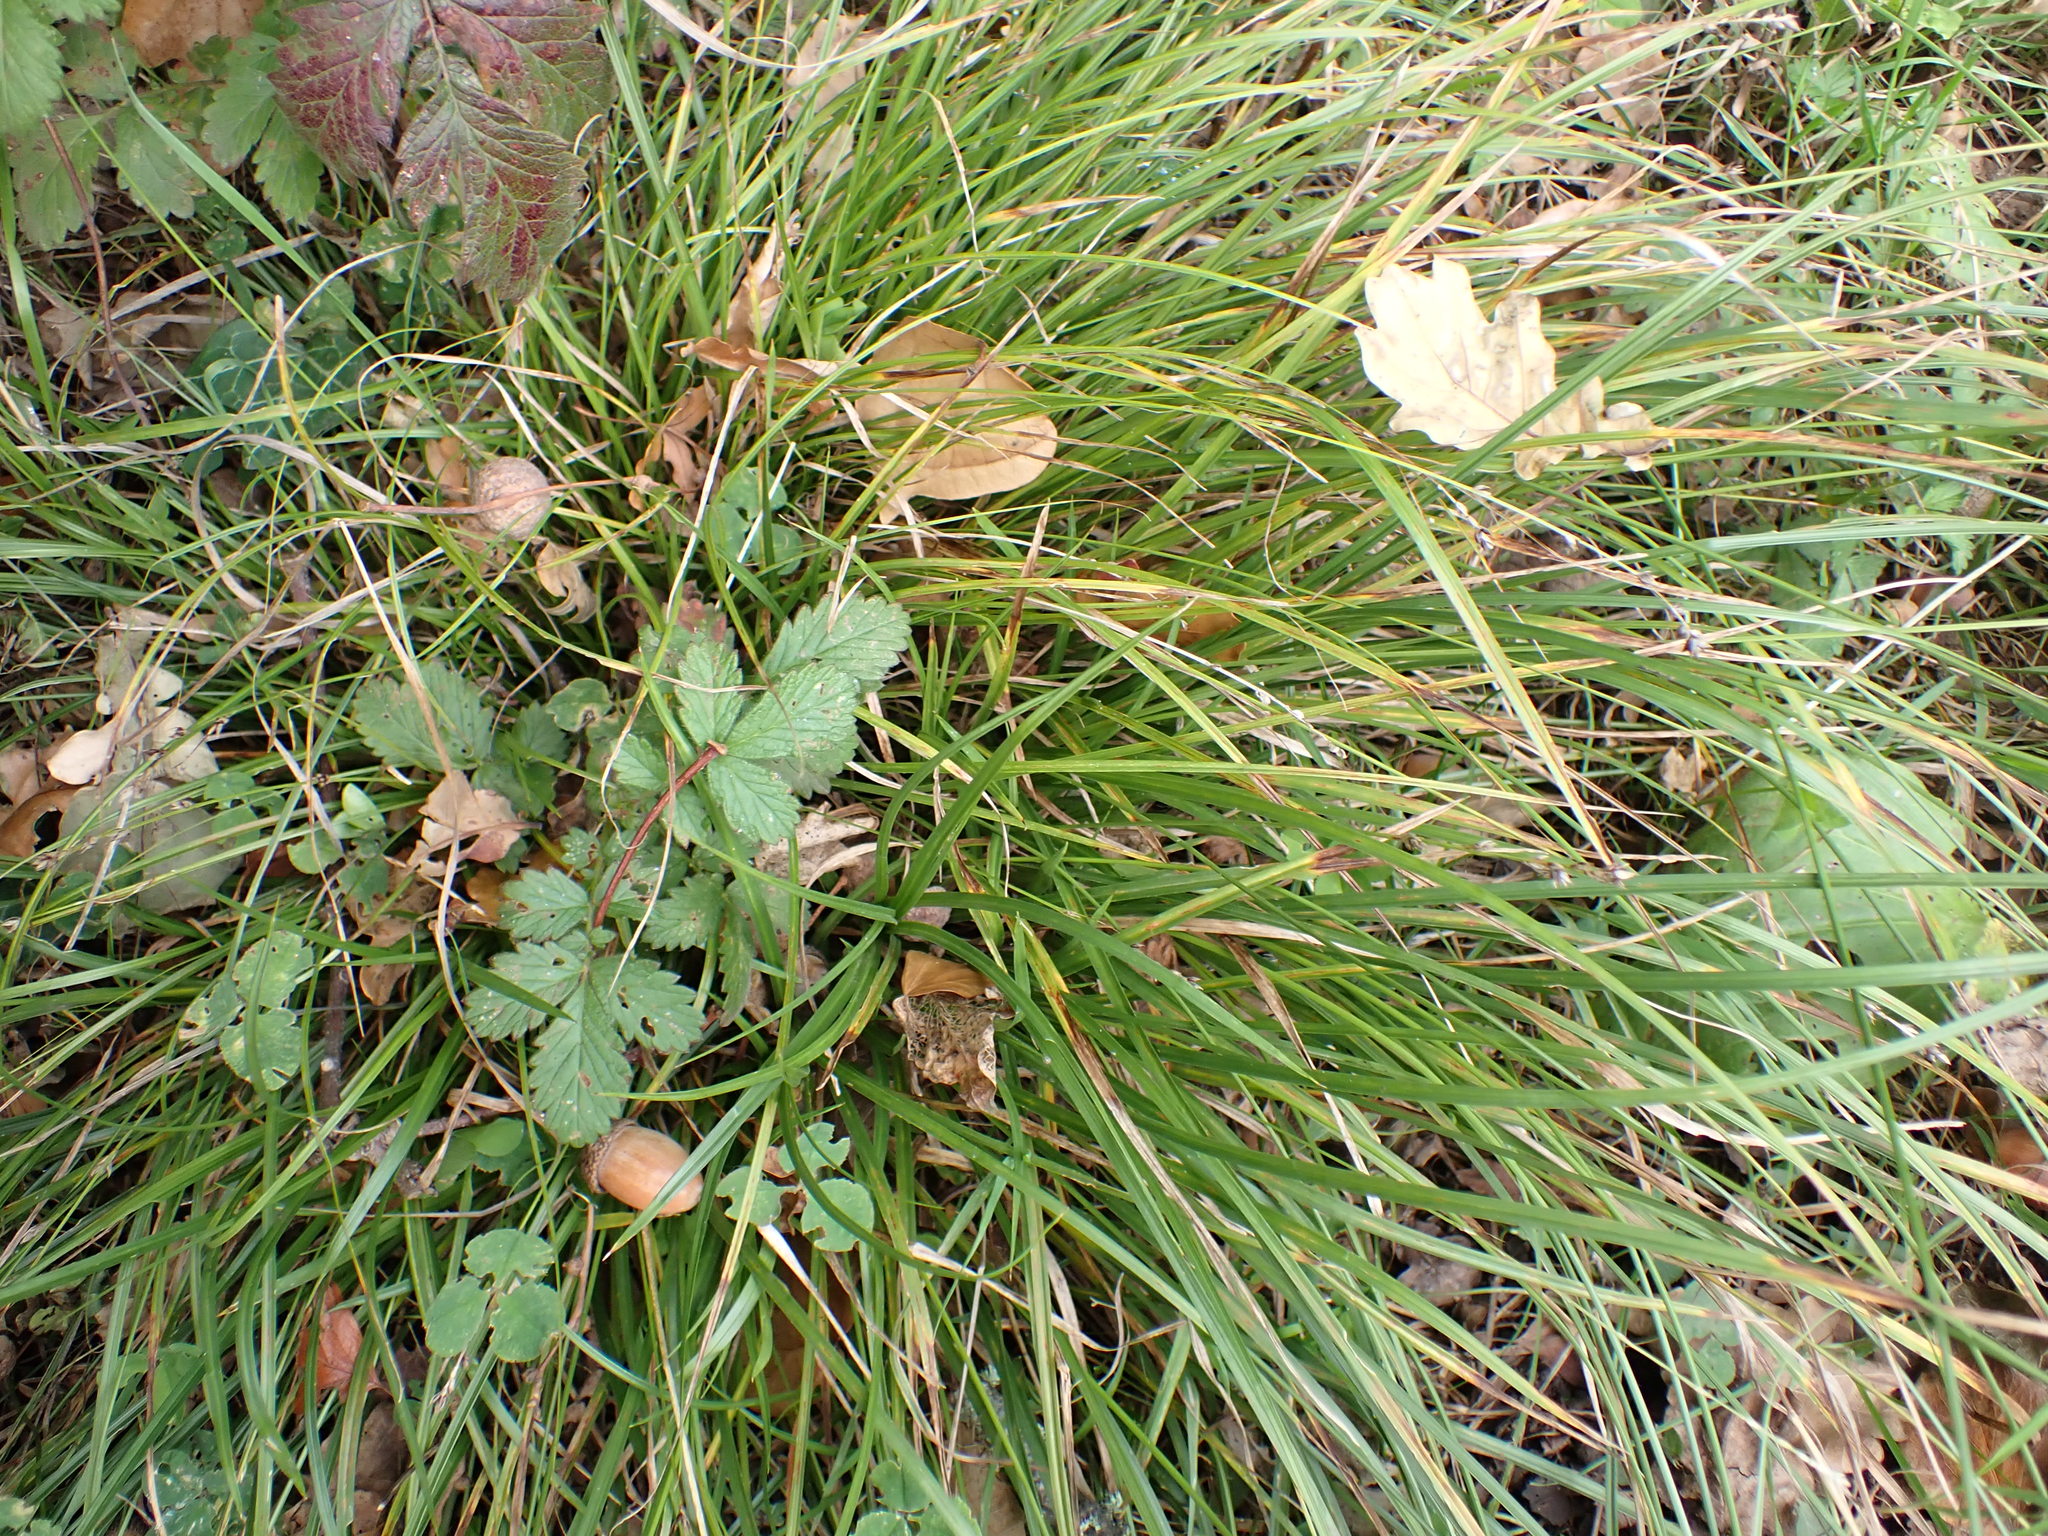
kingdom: Plantae
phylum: Tracheophyta
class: Liliopsida
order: Poales
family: Cyperaceae
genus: Carex
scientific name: Carex divulsa
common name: Grassland sedge
